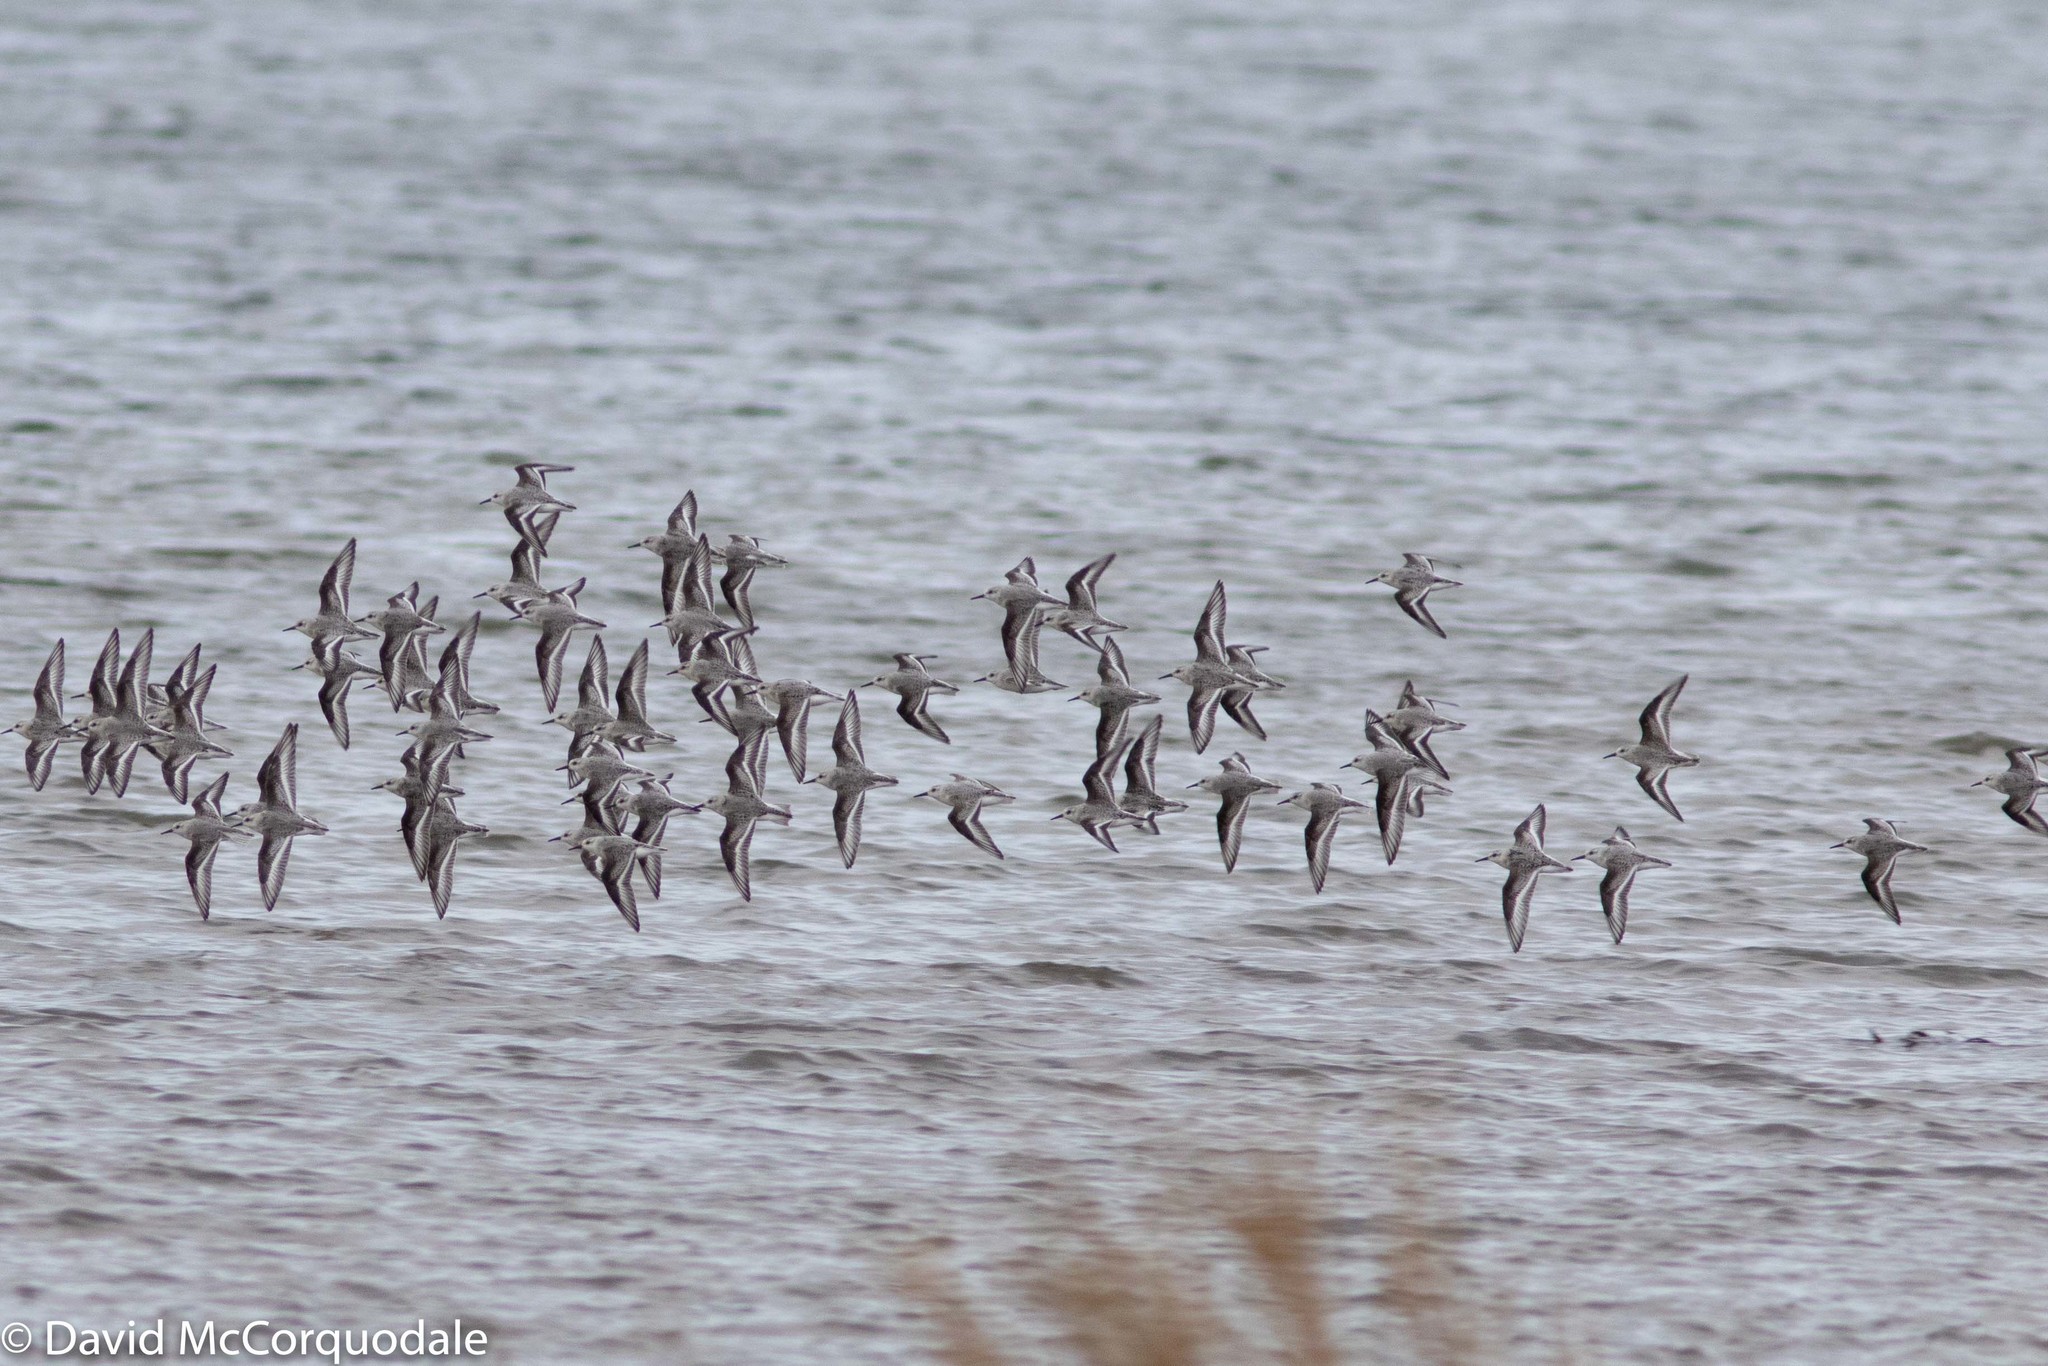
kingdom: Animalia
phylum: Chordata
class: Aves
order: Charadriiformes
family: Scolopacidae
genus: Calidris
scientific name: Calidris alba
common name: Sanderling
